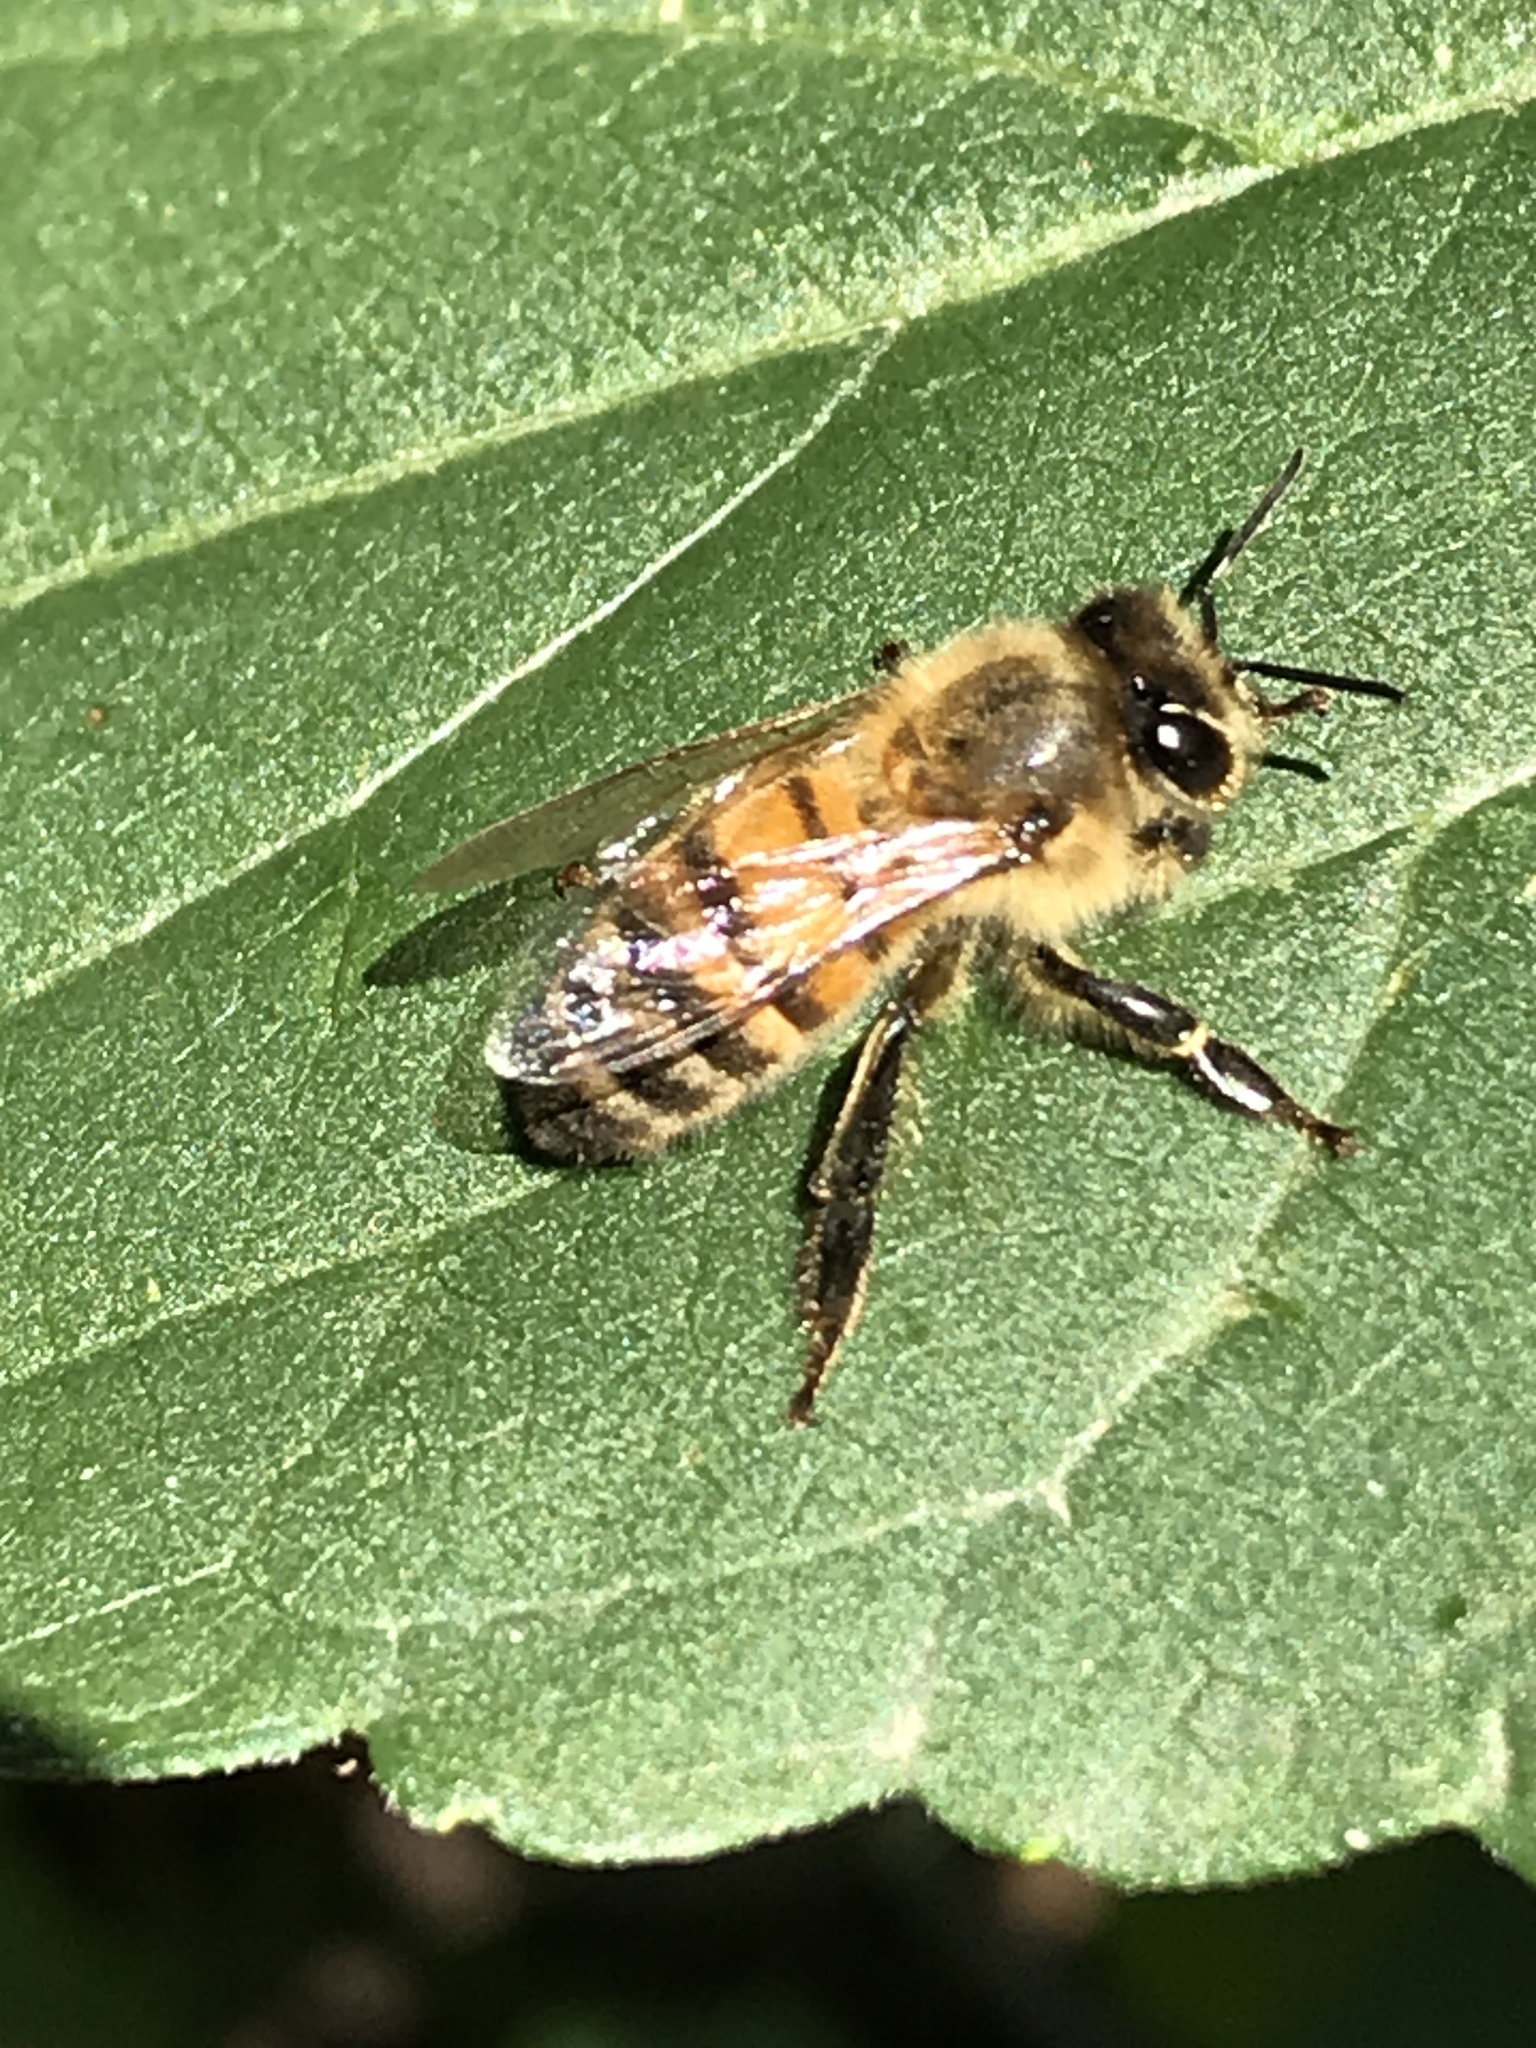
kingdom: Animalia
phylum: Arthropoda
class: Insecta
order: Hymenoptera
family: Apidae
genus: Apis
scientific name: Apis mellifera
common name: Honey bee
